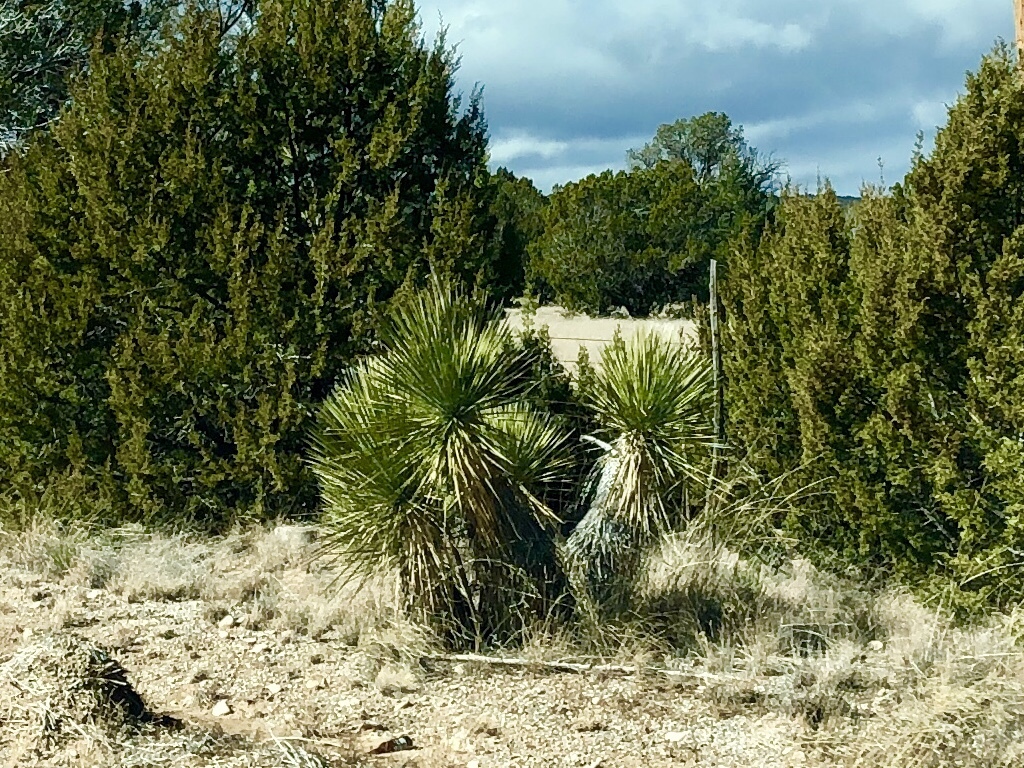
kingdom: Plantae
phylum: Tracheophyta
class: Liliopsida
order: Asparagales
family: Asparagaceae
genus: Yucca
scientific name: Yucca elata
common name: Palmella
